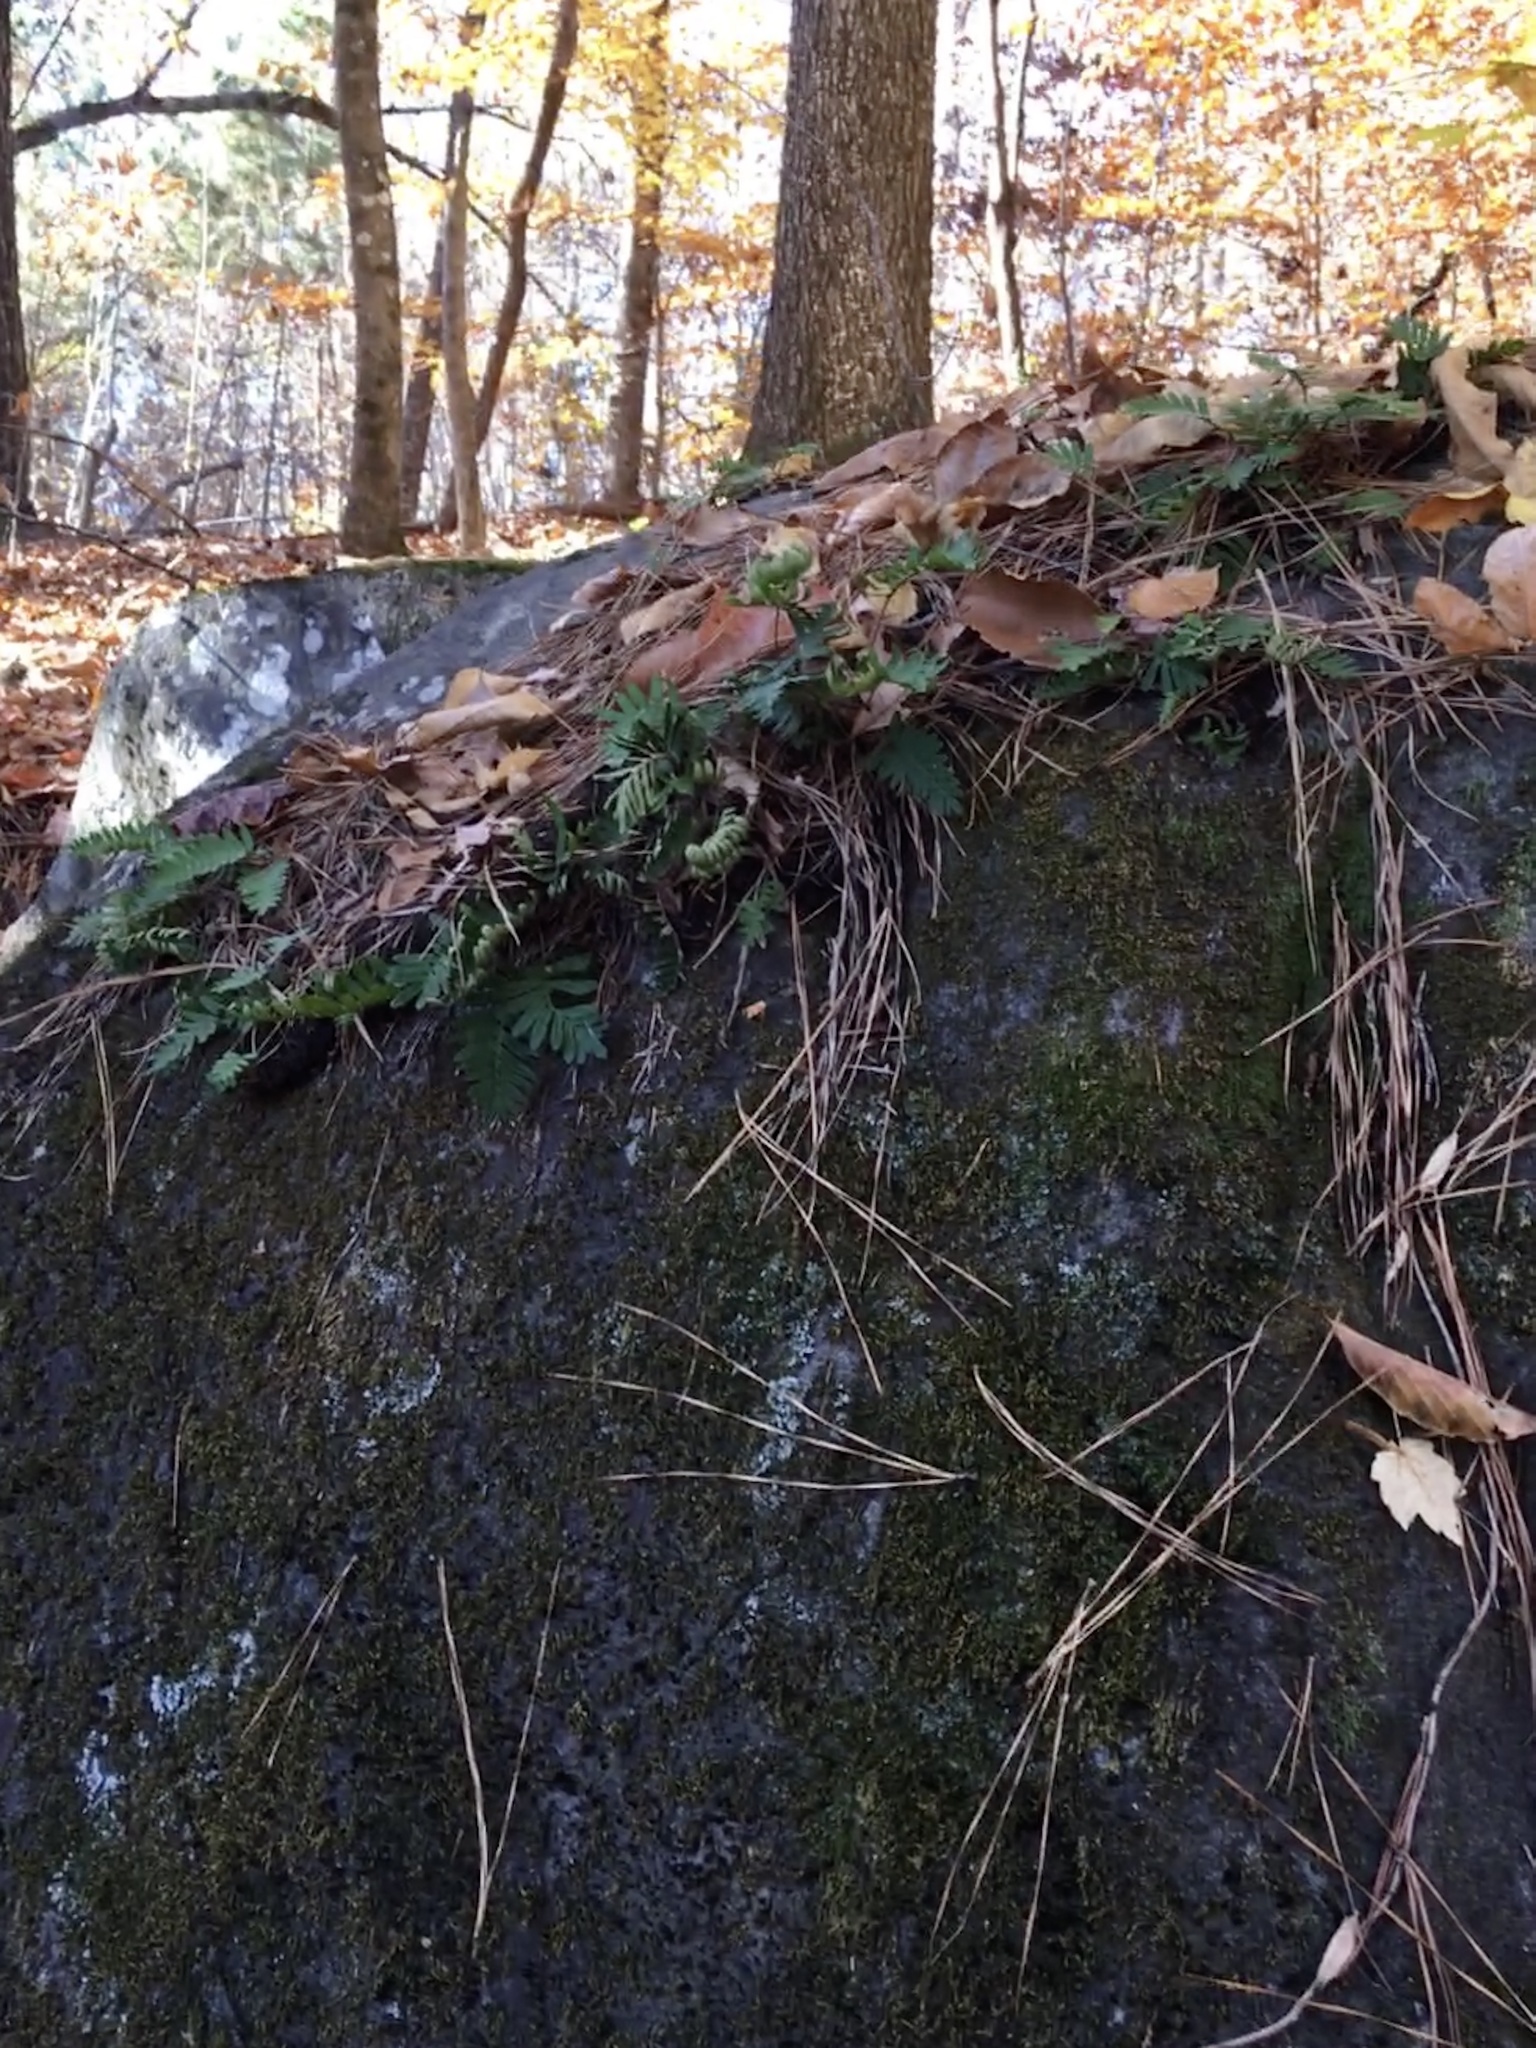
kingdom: Plantae
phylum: Tracheophyta
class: Polypodiopsida
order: Polypodiales
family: Polypodiaceae
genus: Pleopeltis
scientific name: Pleopeltis michauxiana
